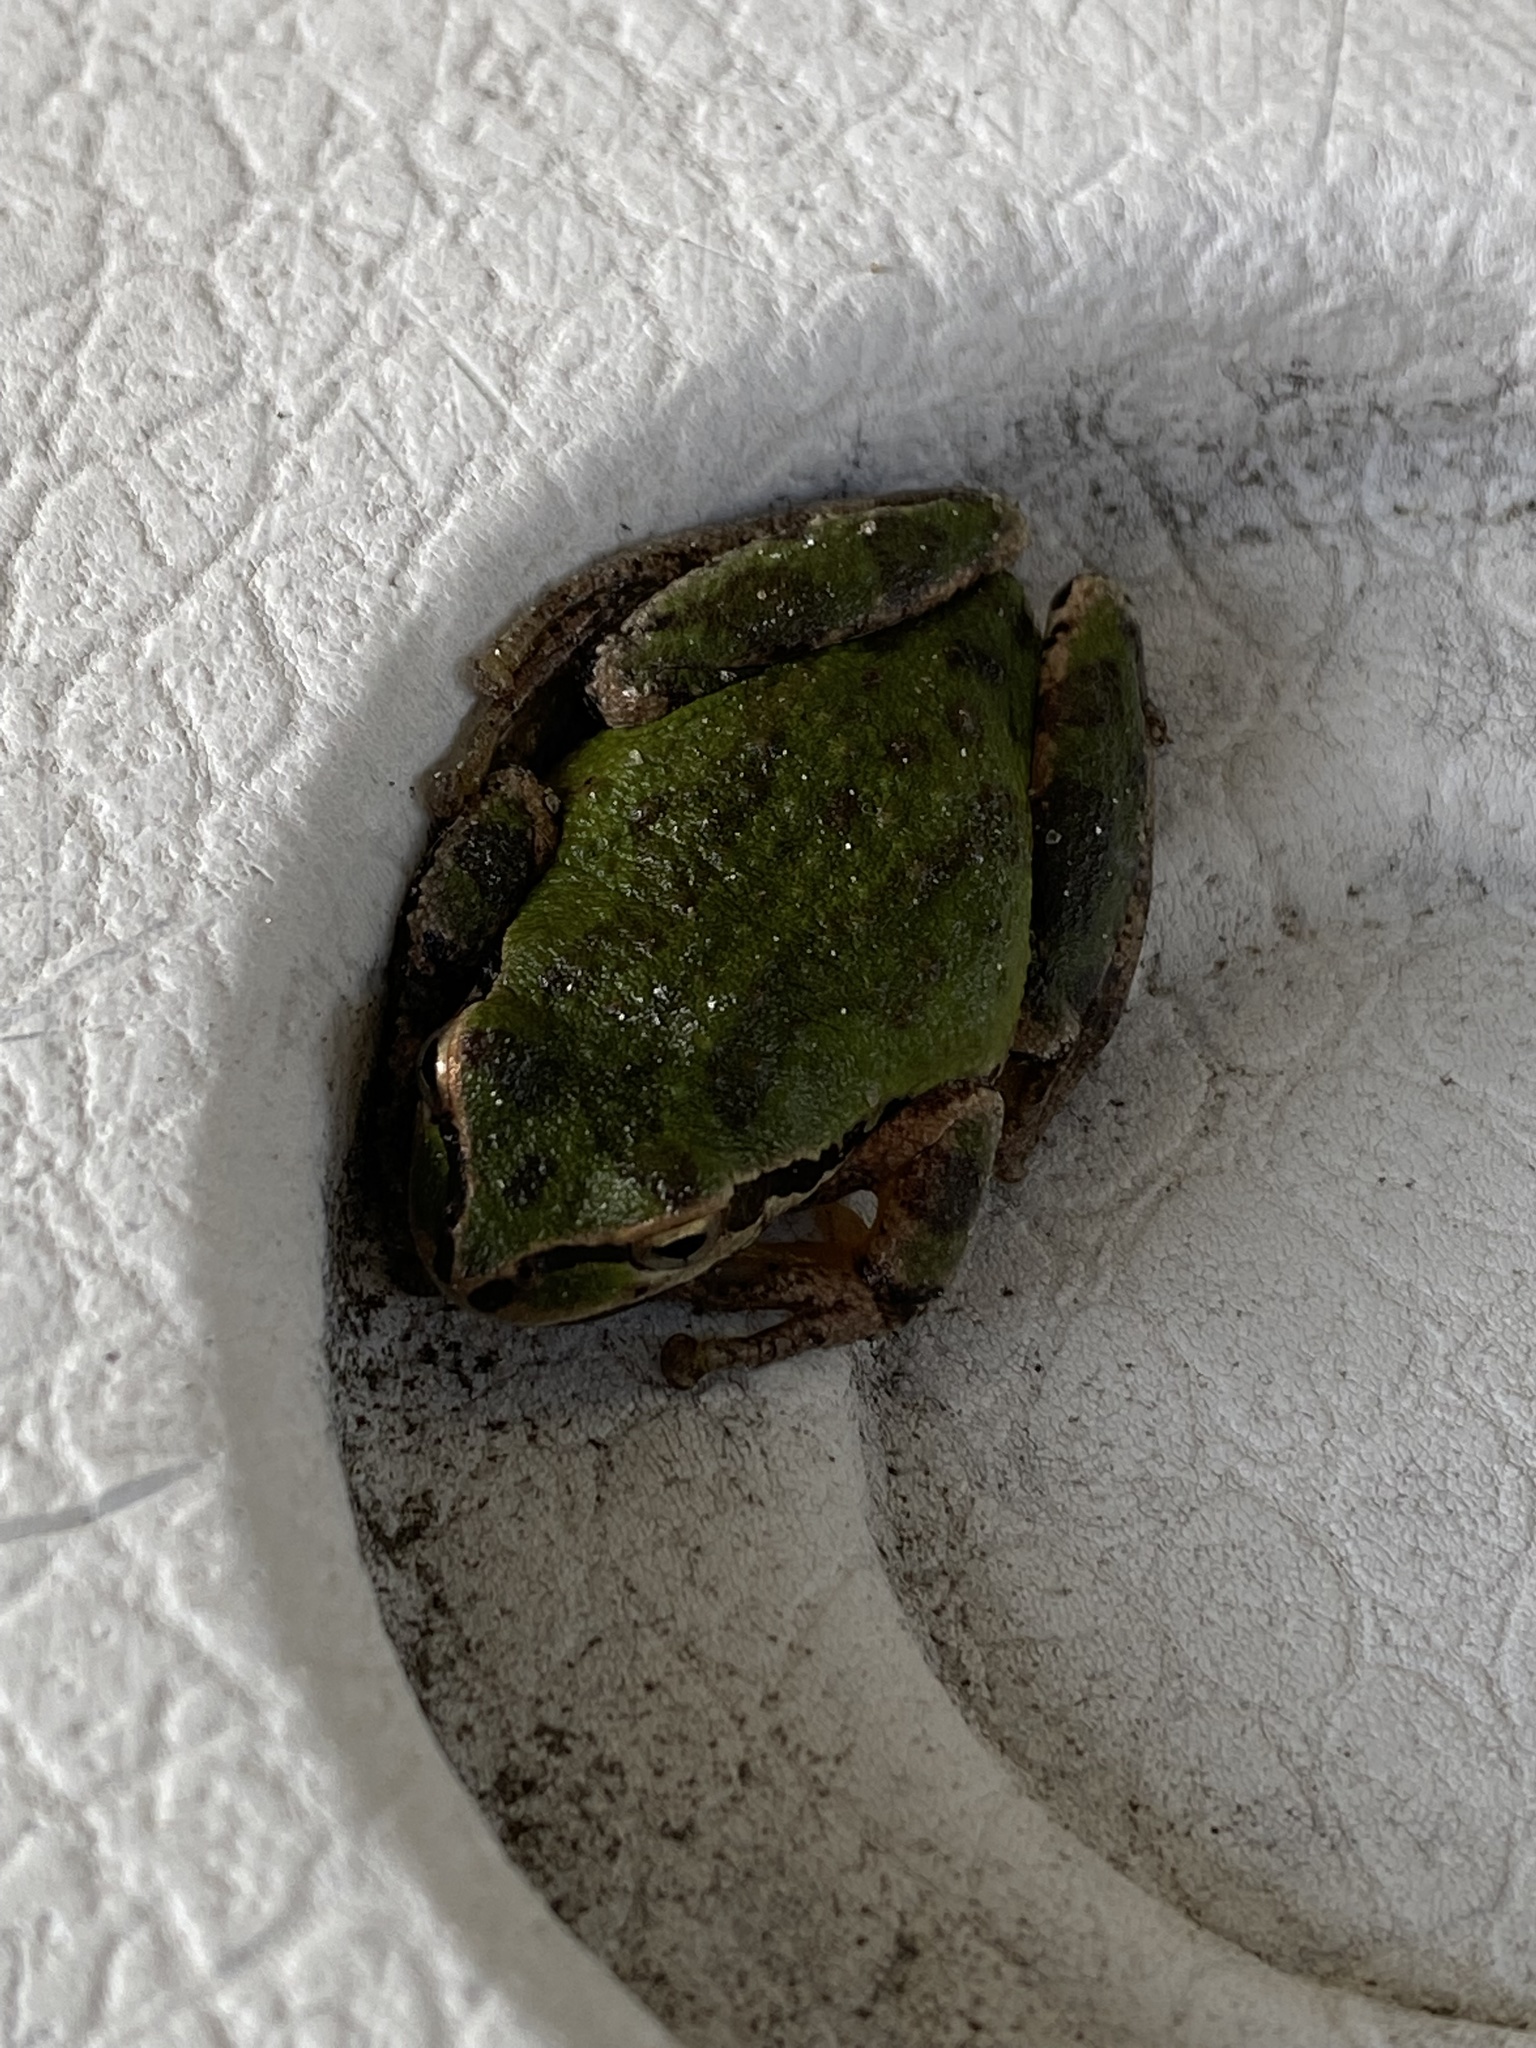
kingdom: Animalia
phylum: Chordata
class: Amphibia
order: Anura
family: Hylidae
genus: Pseudacris
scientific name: Pseudacris regilla
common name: Pacific chorus frog
